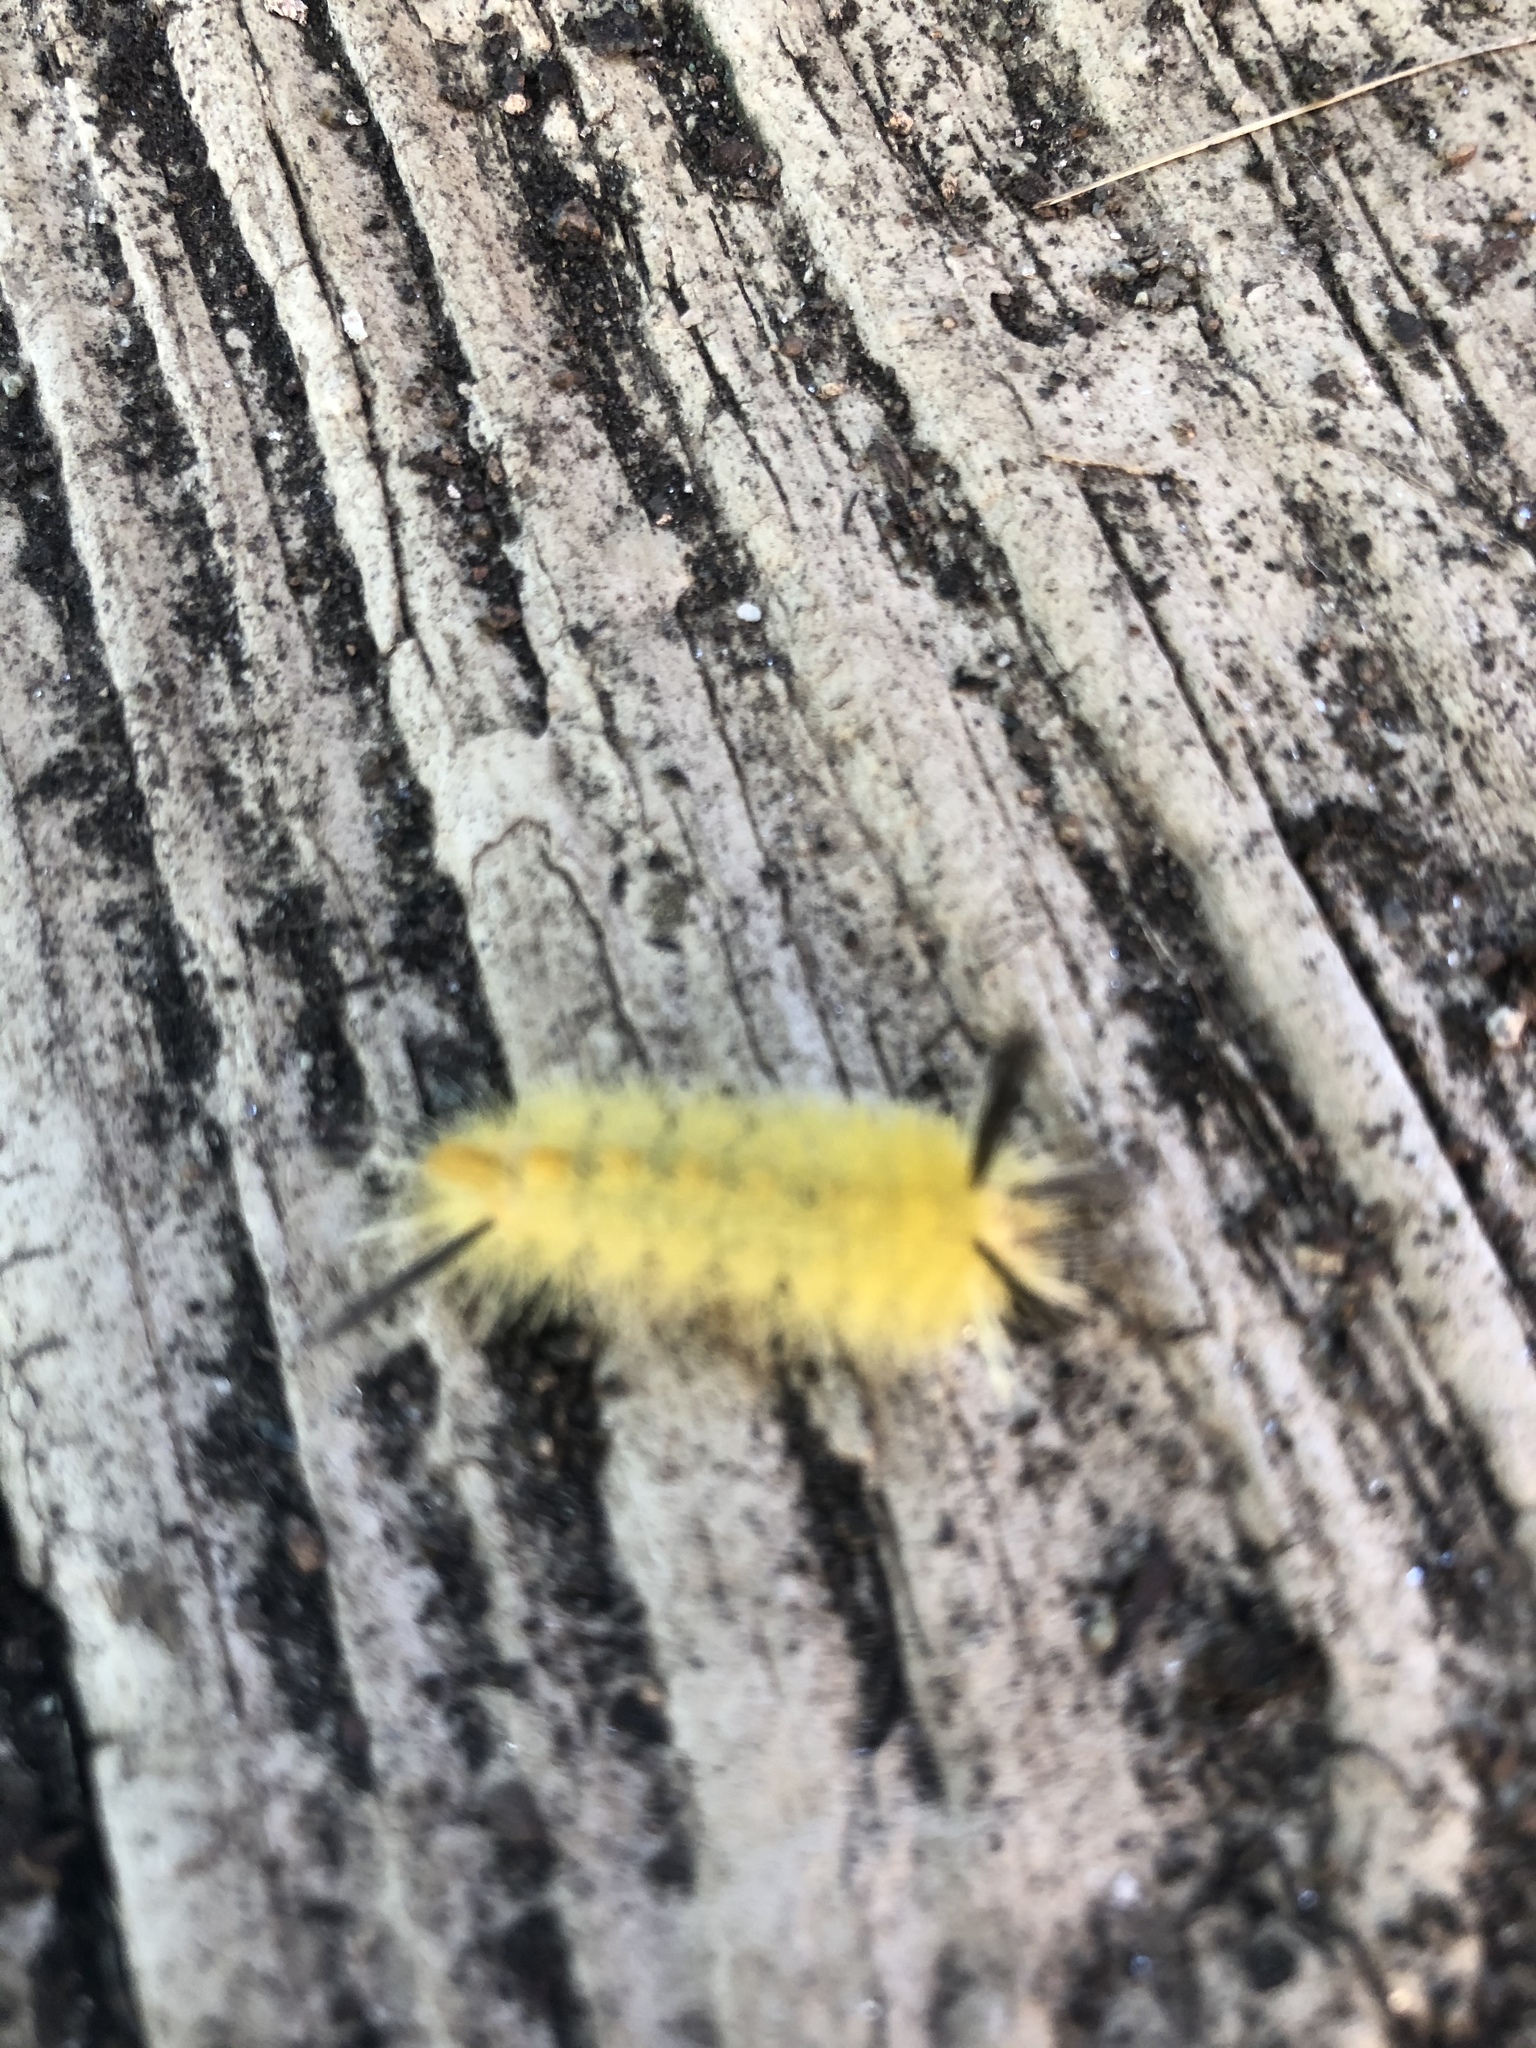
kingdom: Animalia
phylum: Arthropoda
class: Insecta
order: Lepidoptera
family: Erebidae
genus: Halysidota
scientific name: Halysidota tessellaris
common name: Banded tussock moth
